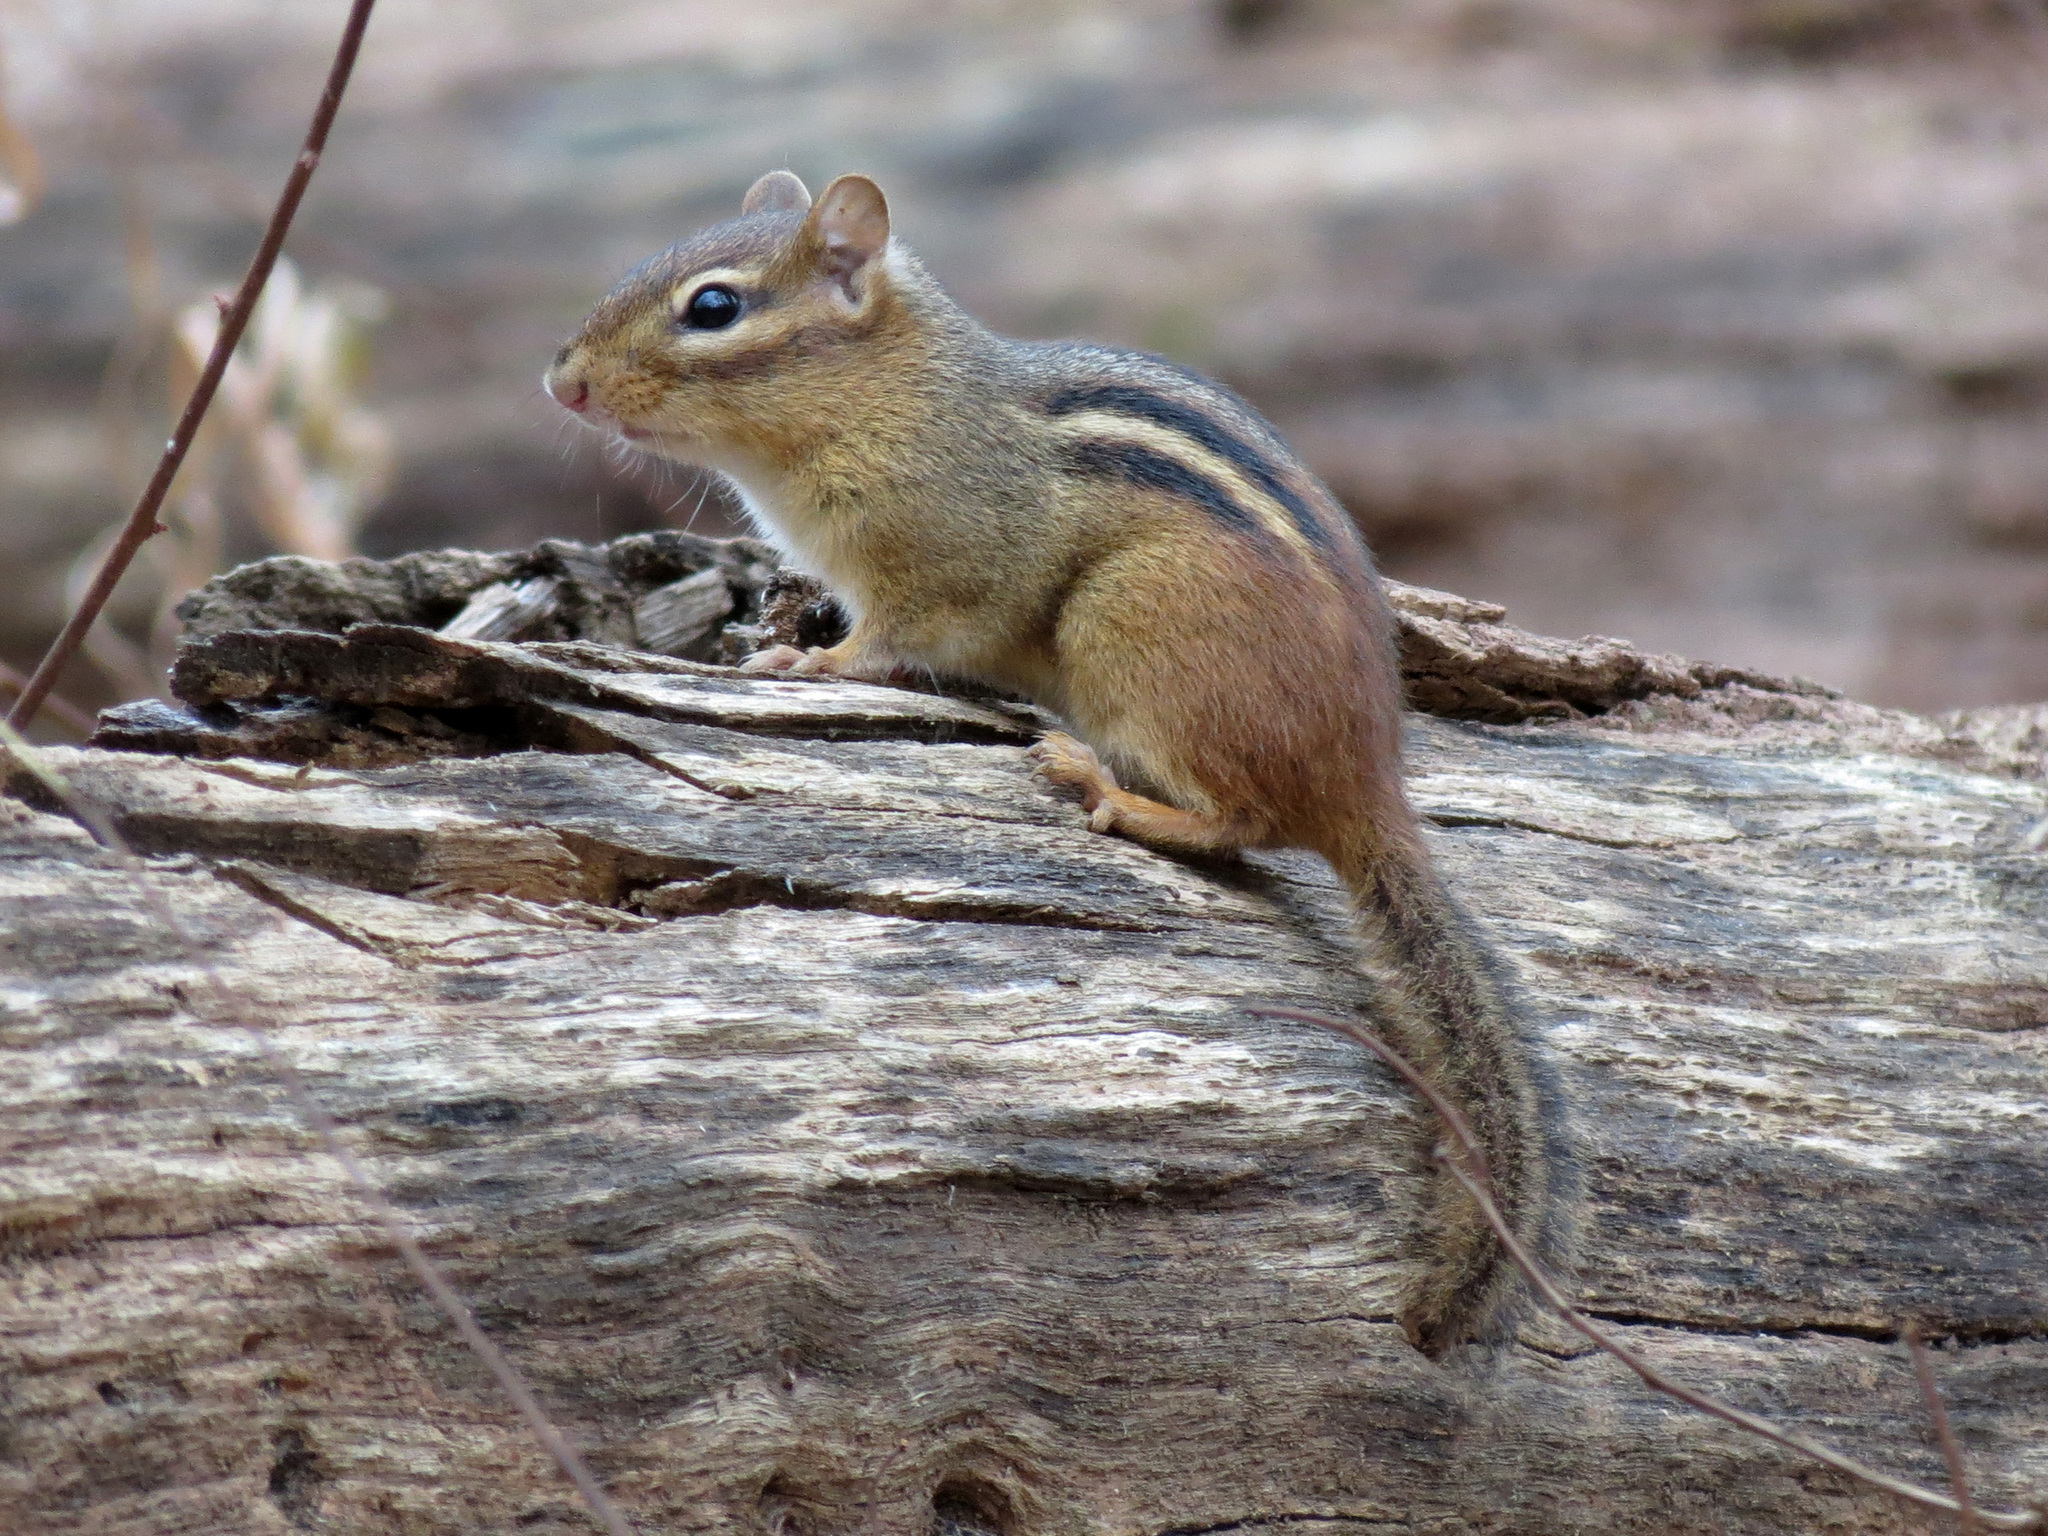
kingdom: Animalia
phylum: Chordata
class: Mammalia
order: Rodentia
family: Sciuridae
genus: Tamias
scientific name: Tamias striatus
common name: Eastern chipmunk
